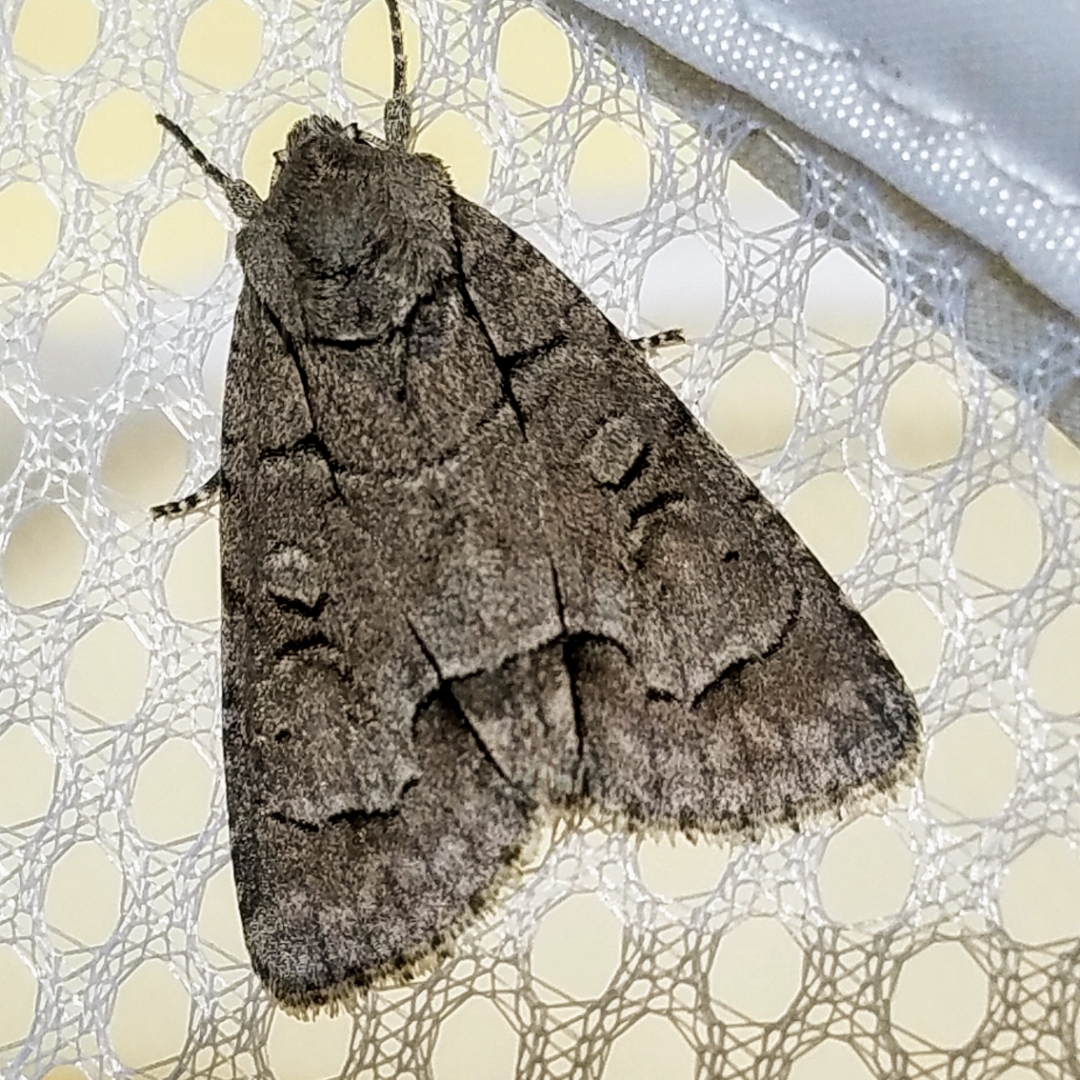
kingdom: Animalia
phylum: Arthropoda
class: Insecta
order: Lepidoptera
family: Noctuidae
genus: Acronicta
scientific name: Acronicta radcliffei
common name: Radcliffe's dagger
